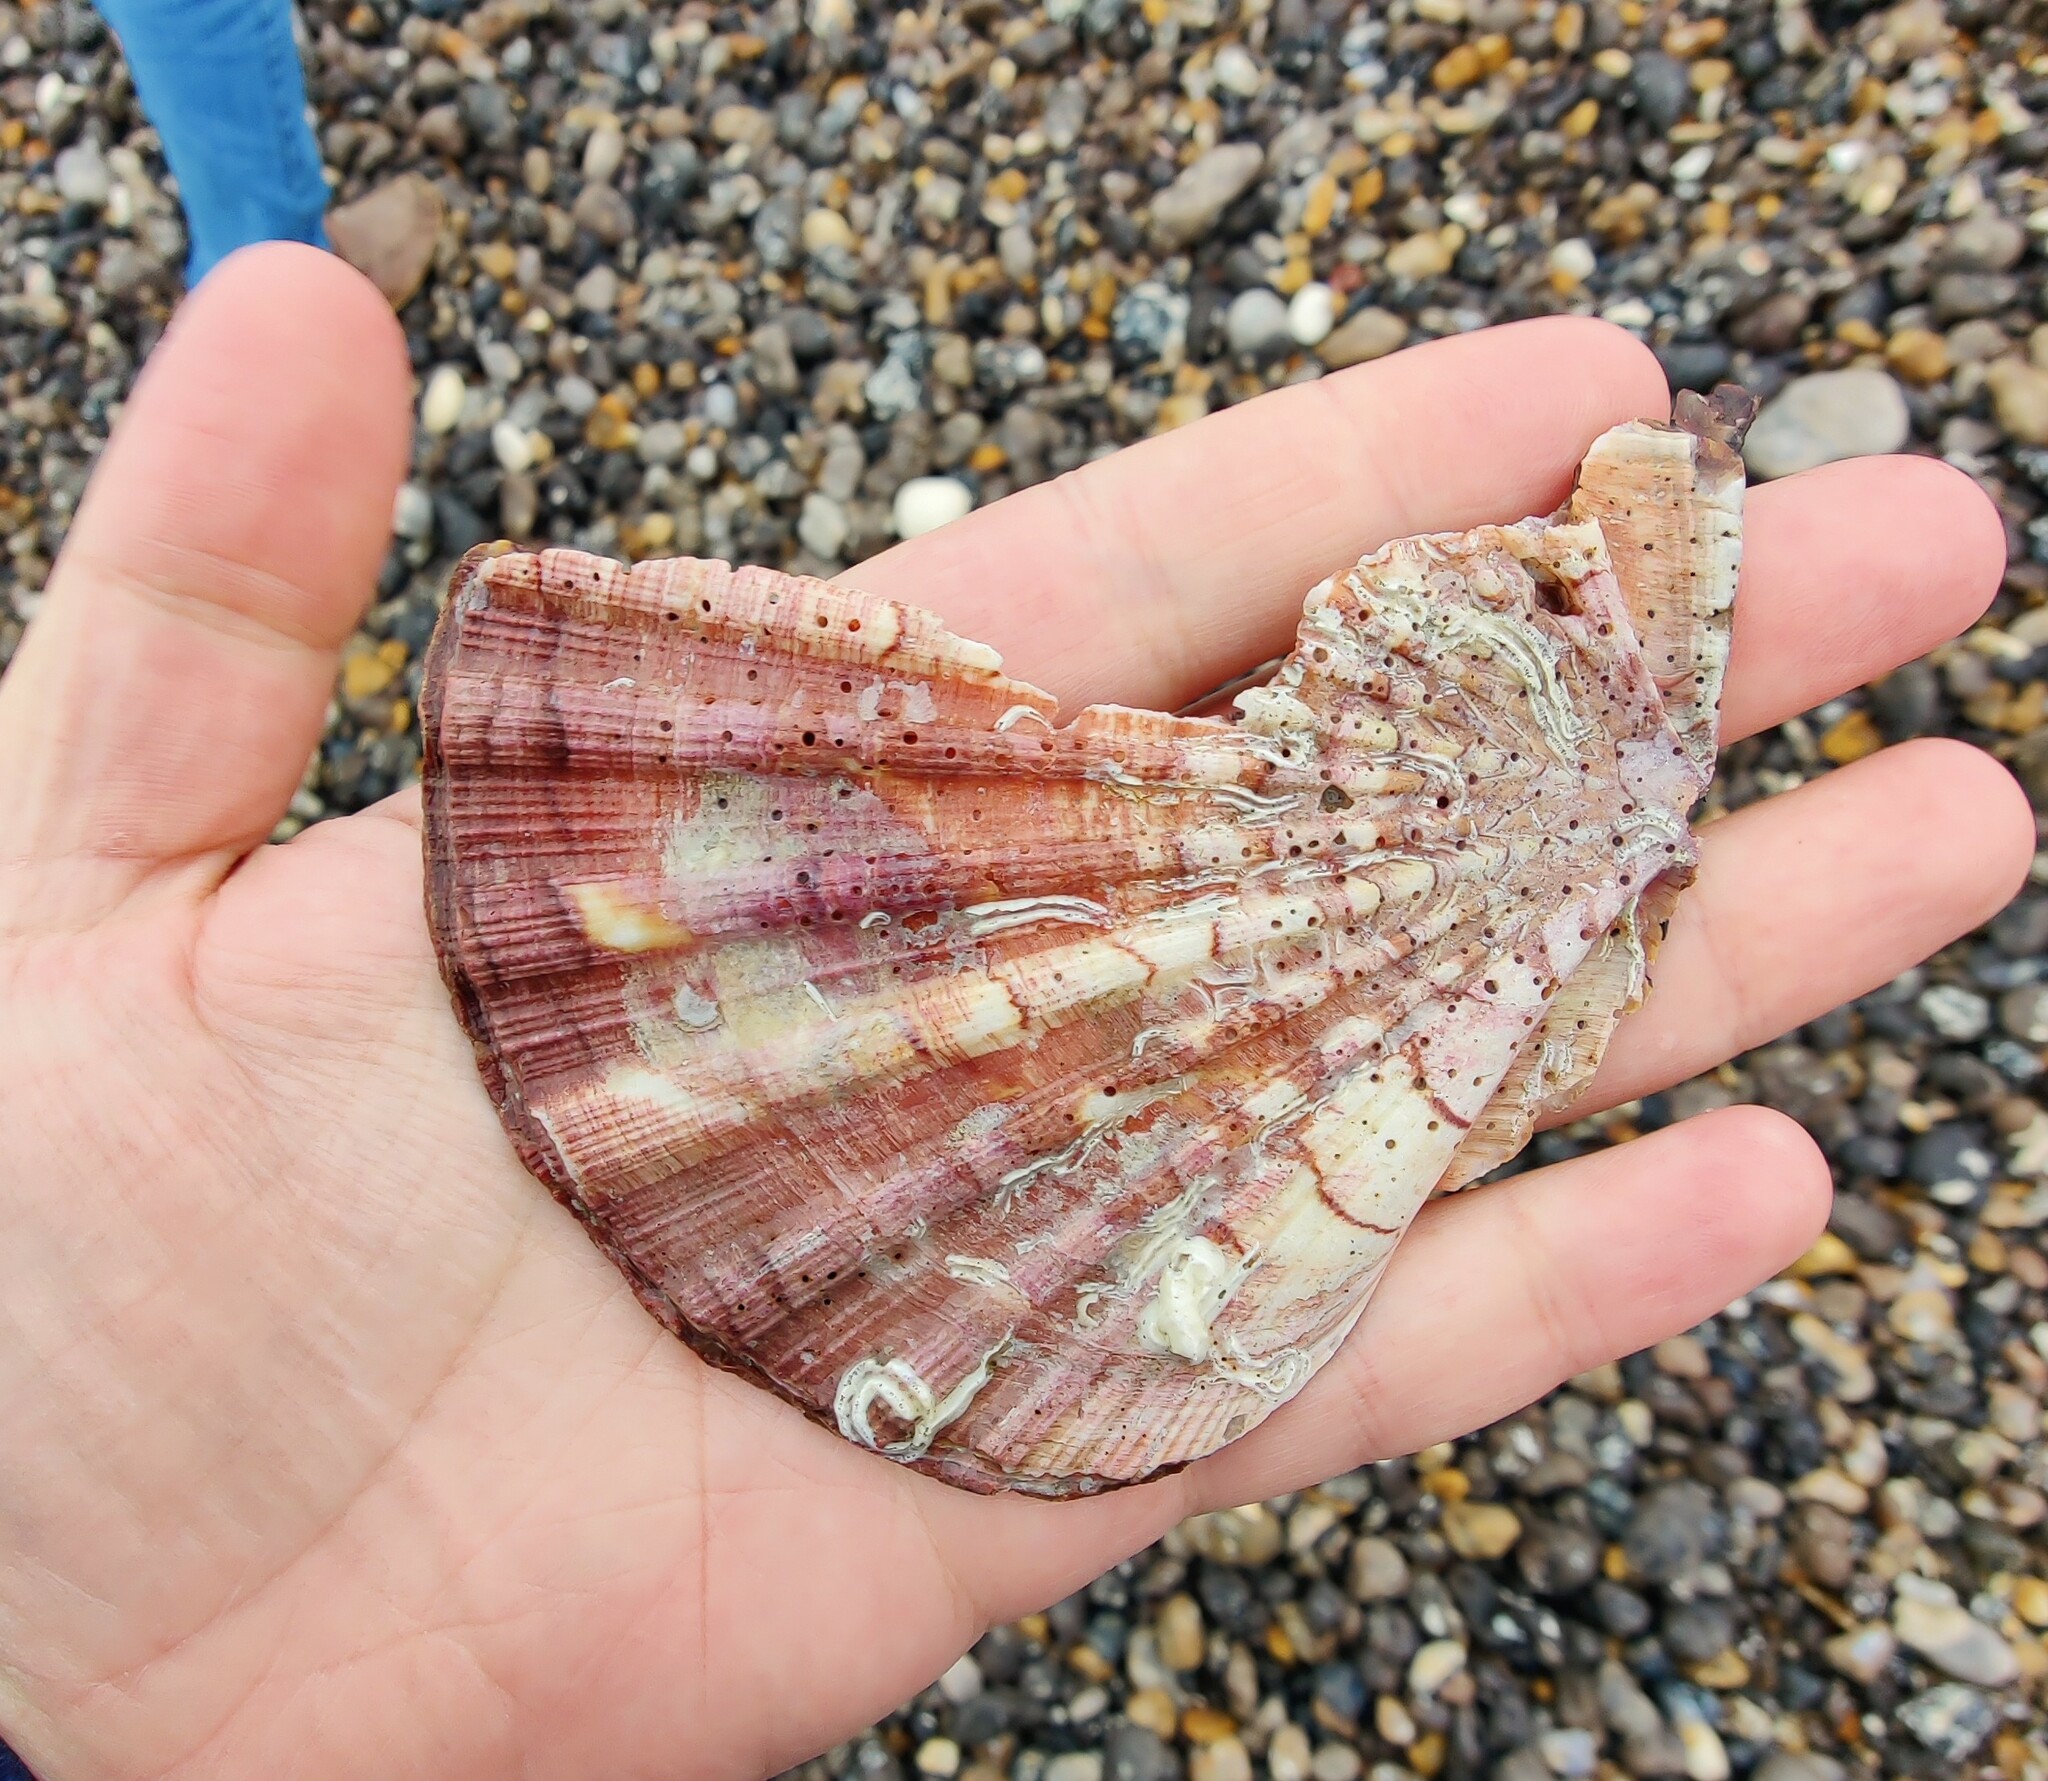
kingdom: Animalia
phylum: Mollusca
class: Bivalvia
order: Pectinida
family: Pectinidae
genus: Pecten
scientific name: Pecten maximus
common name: Great scallop
